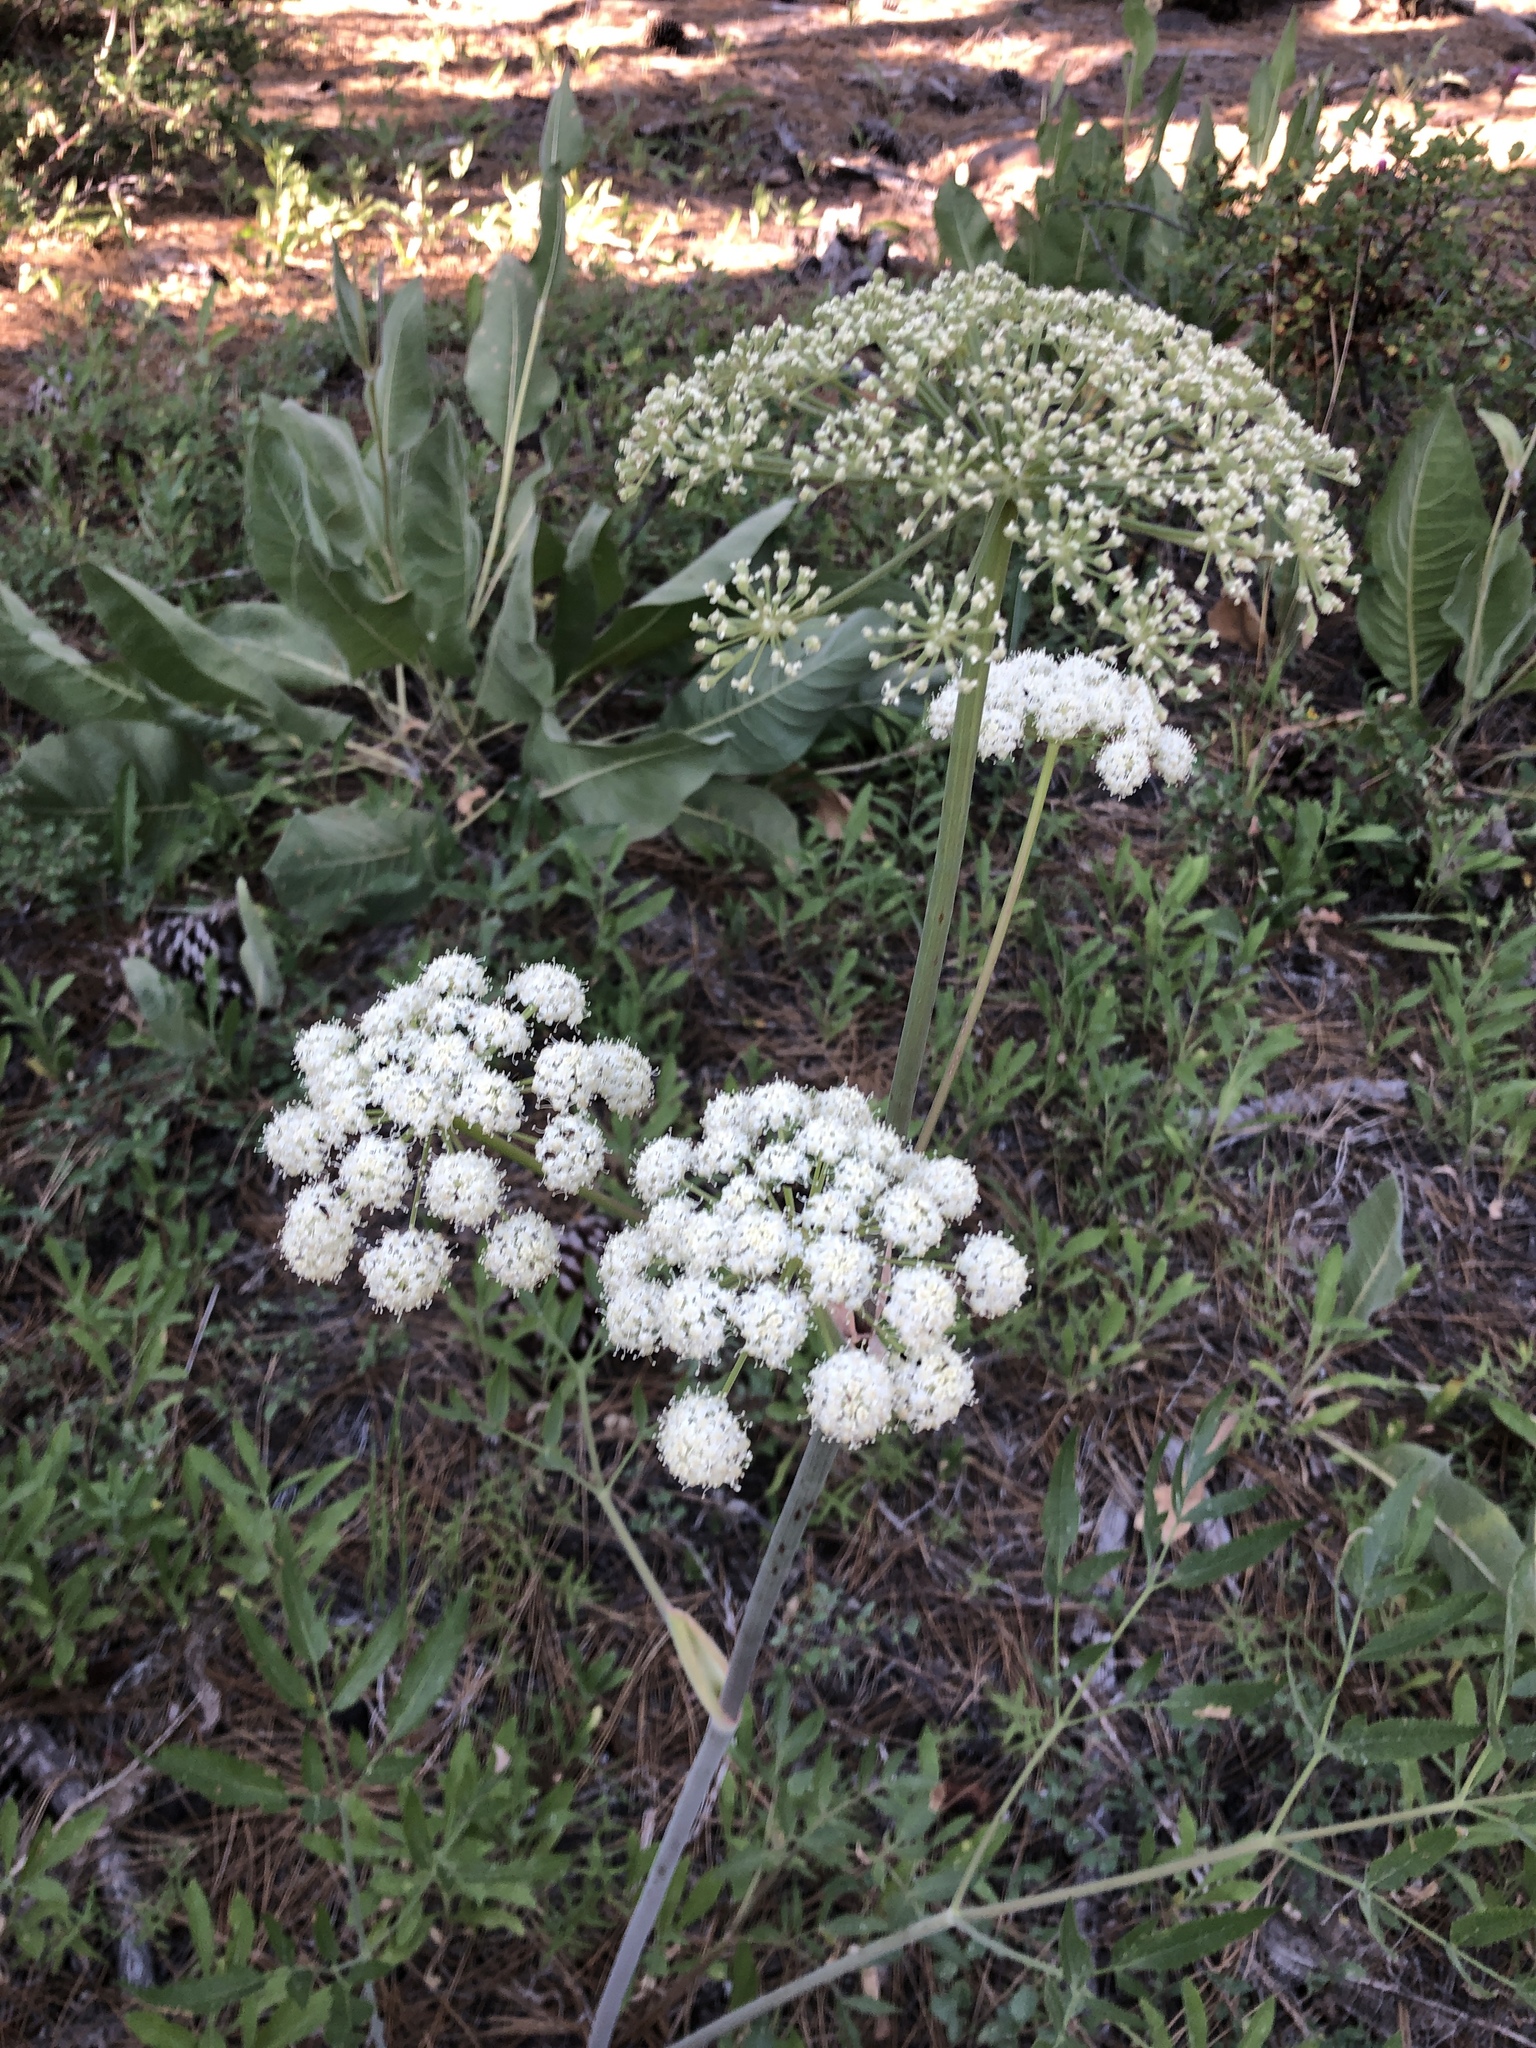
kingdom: Plantae
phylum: Tracheophyta
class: Magnoliopsida
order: Apiales
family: Apiaceae
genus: Angelica
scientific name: Angelica breweri
